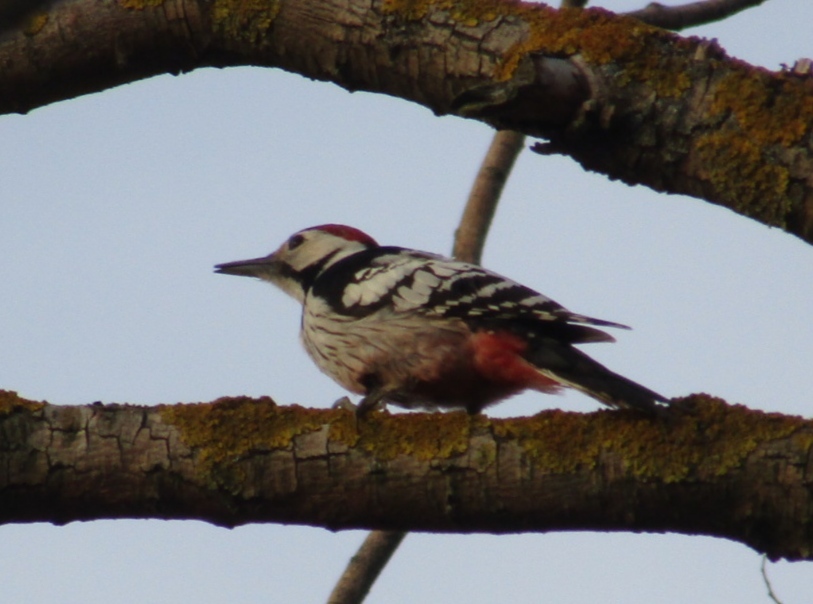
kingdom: Animalia
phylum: Chordata
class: Aves
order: Piciformes
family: Picidae
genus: Dendrocopos
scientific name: Dendrocopos leucotos
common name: White-backed woodpecker
